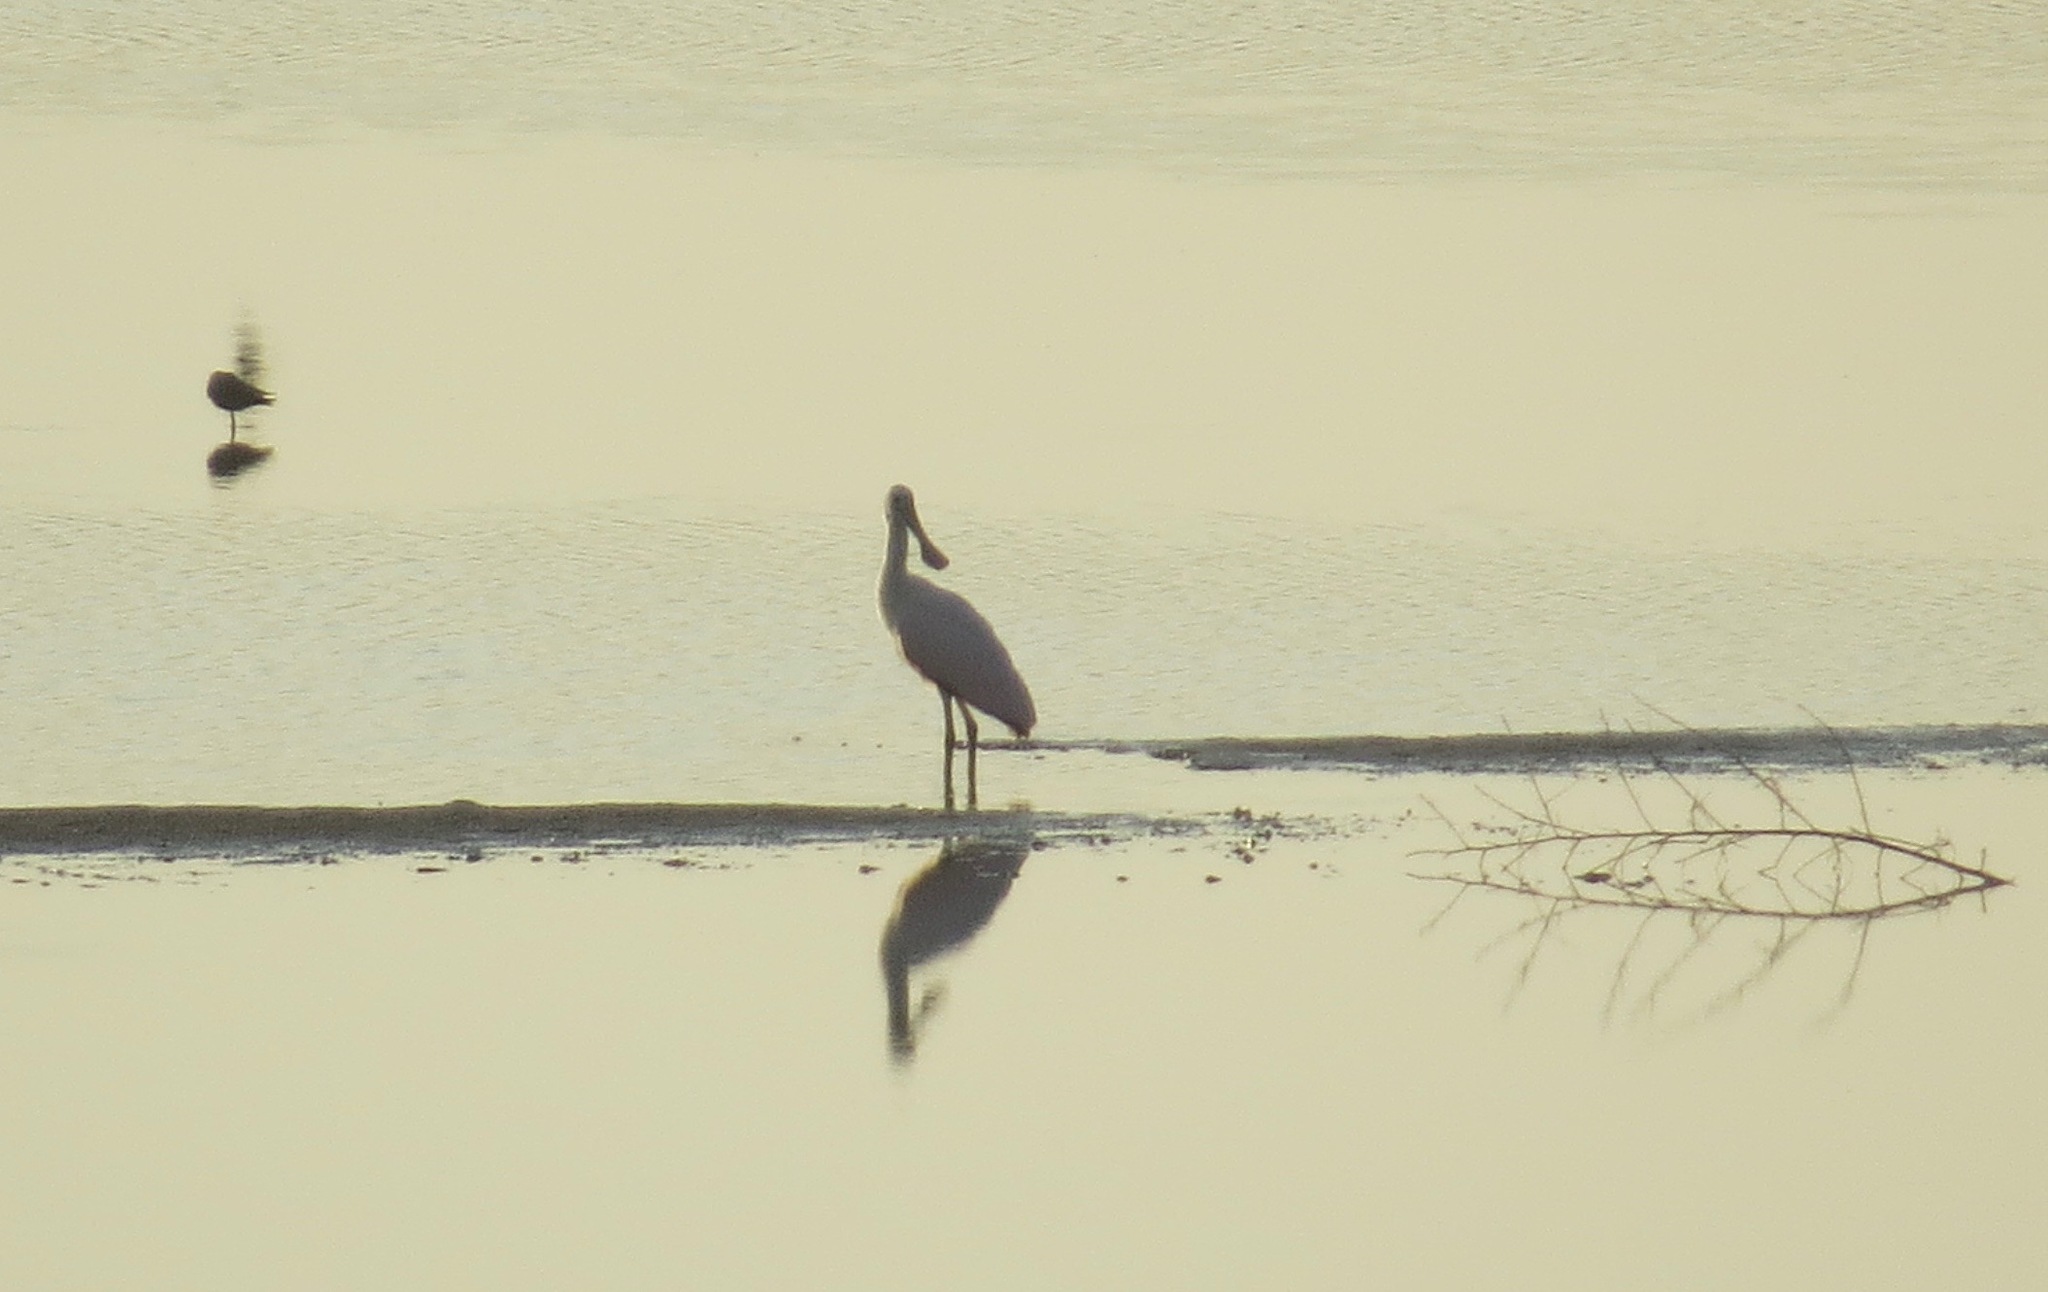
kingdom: Animalia
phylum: Chordata
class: Aves
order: Pelecaniformes
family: Threskiornithidae
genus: Platalea
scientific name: Platalea ajaja
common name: Roseate spoonbill
